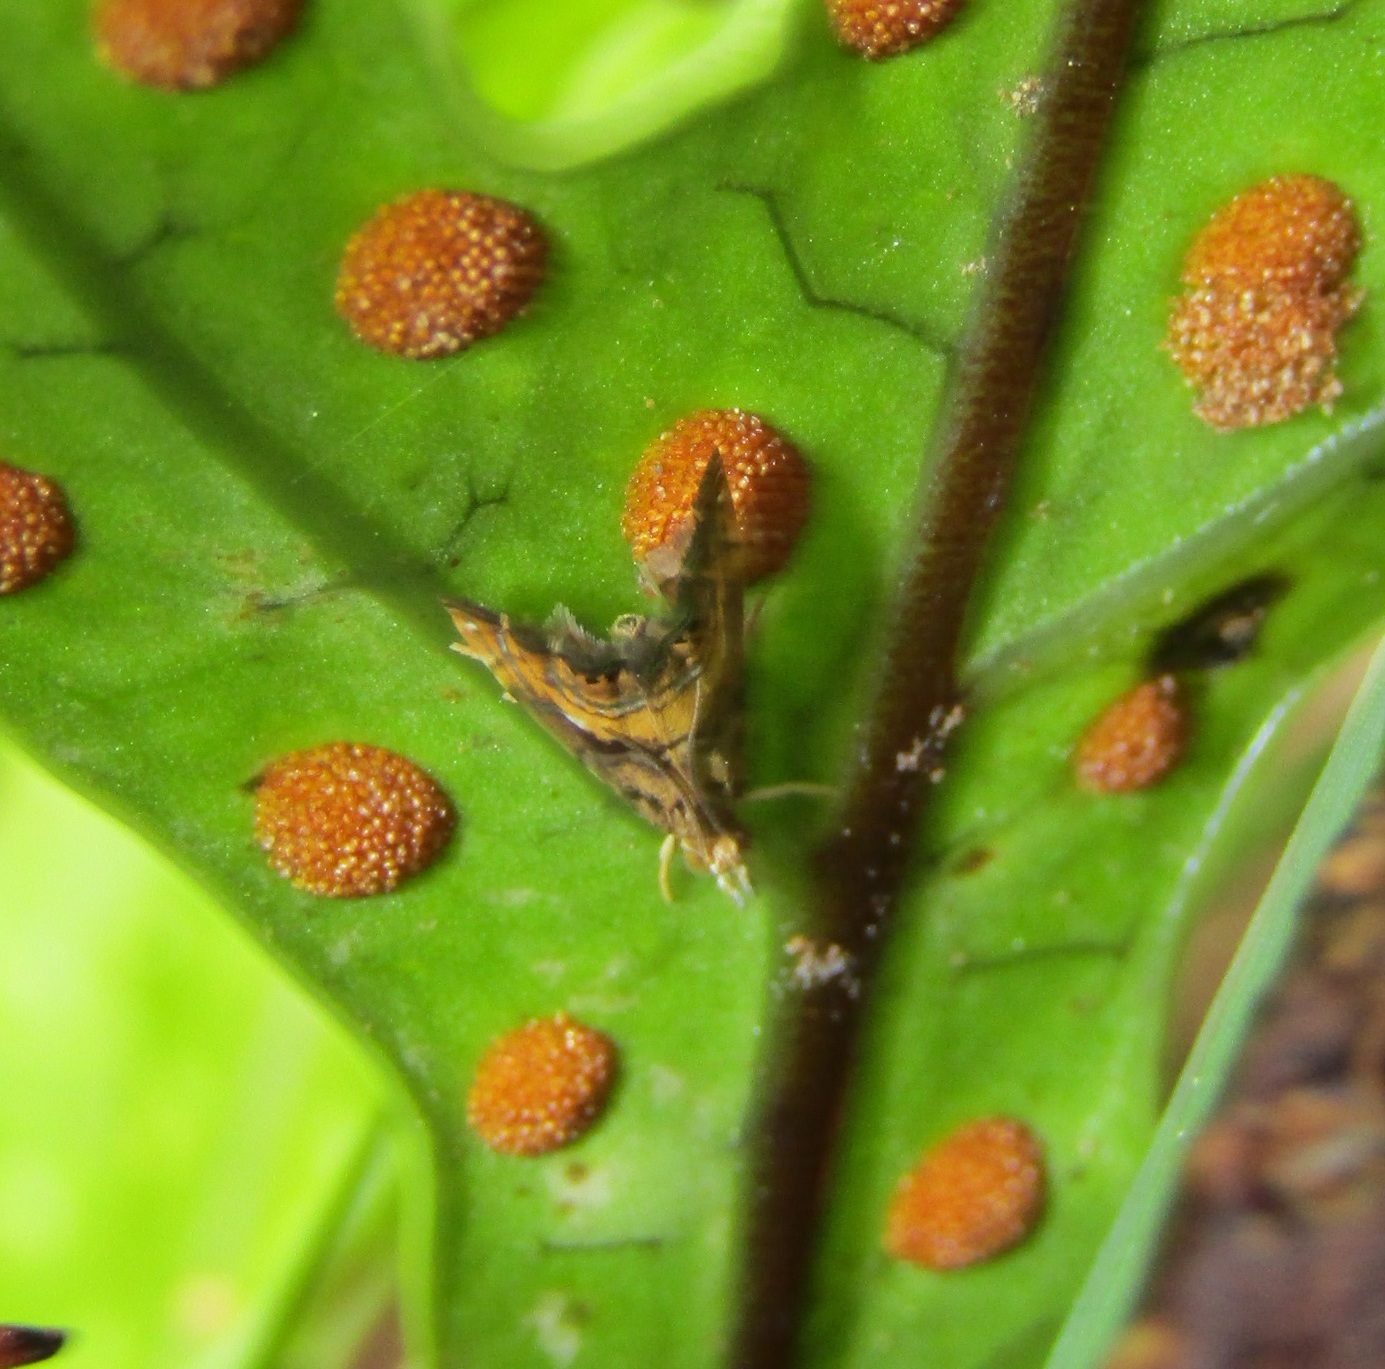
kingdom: Animalia
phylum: Arthropoda
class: Insecta
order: Lepidoptera
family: Crambidae
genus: Glaucocharis
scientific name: Glaucocharis chrysochyta
